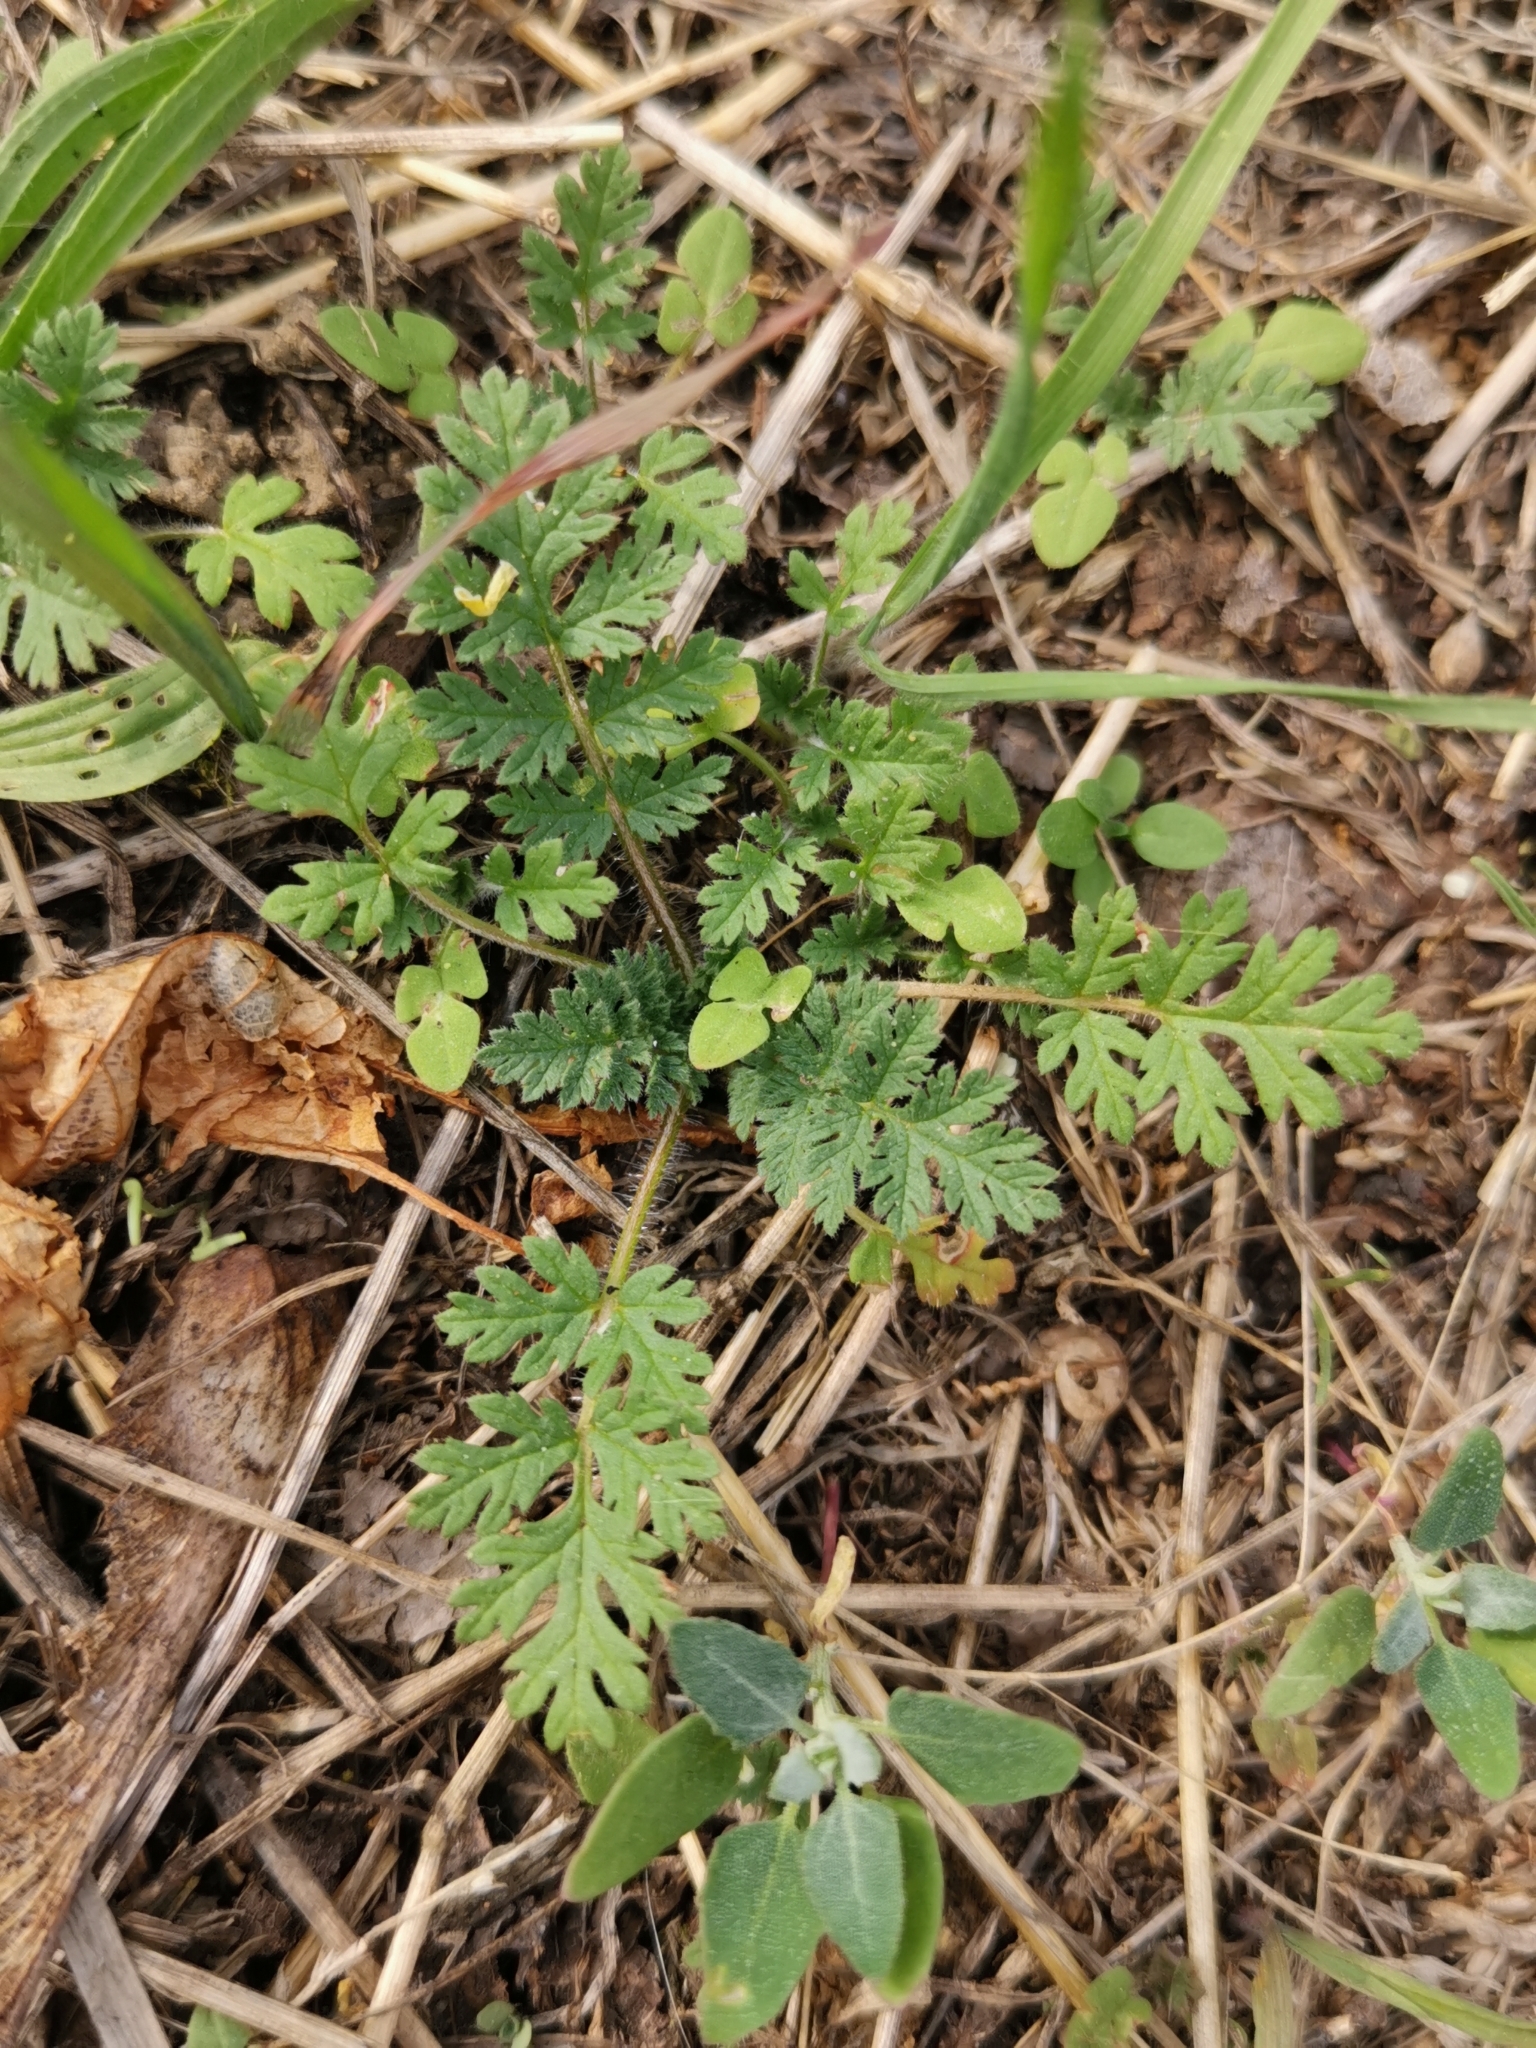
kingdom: Plantae
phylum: Tracheophyta
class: Magnoliopsida
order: Geraniales
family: Geraniaceae
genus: Erodium
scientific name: Erodium cicutarium
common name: Common stork's-bill
